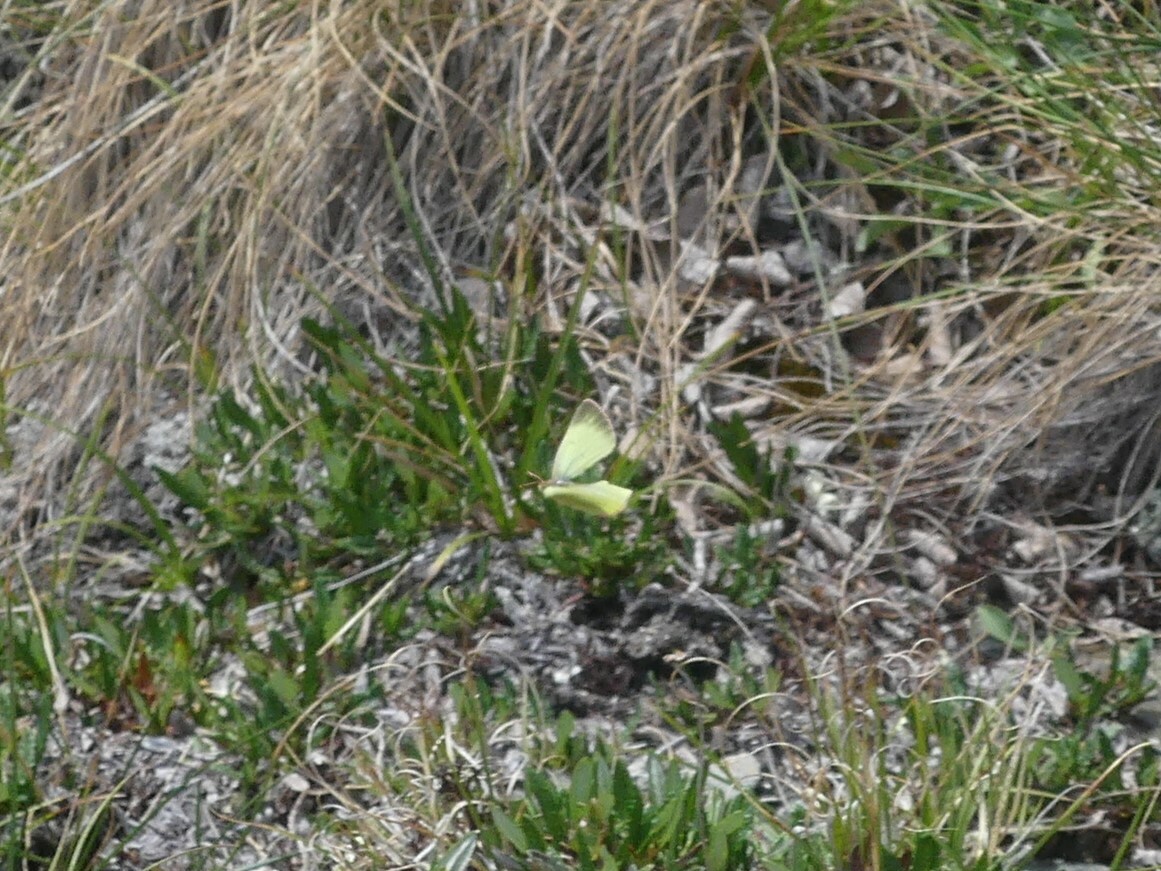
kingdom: Animalia
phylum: Arthropoda
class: Insecta
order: Lepidoptera
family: Pieridae
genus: Colias
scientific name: Colias palaeno
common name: Moorland clouded yellow
